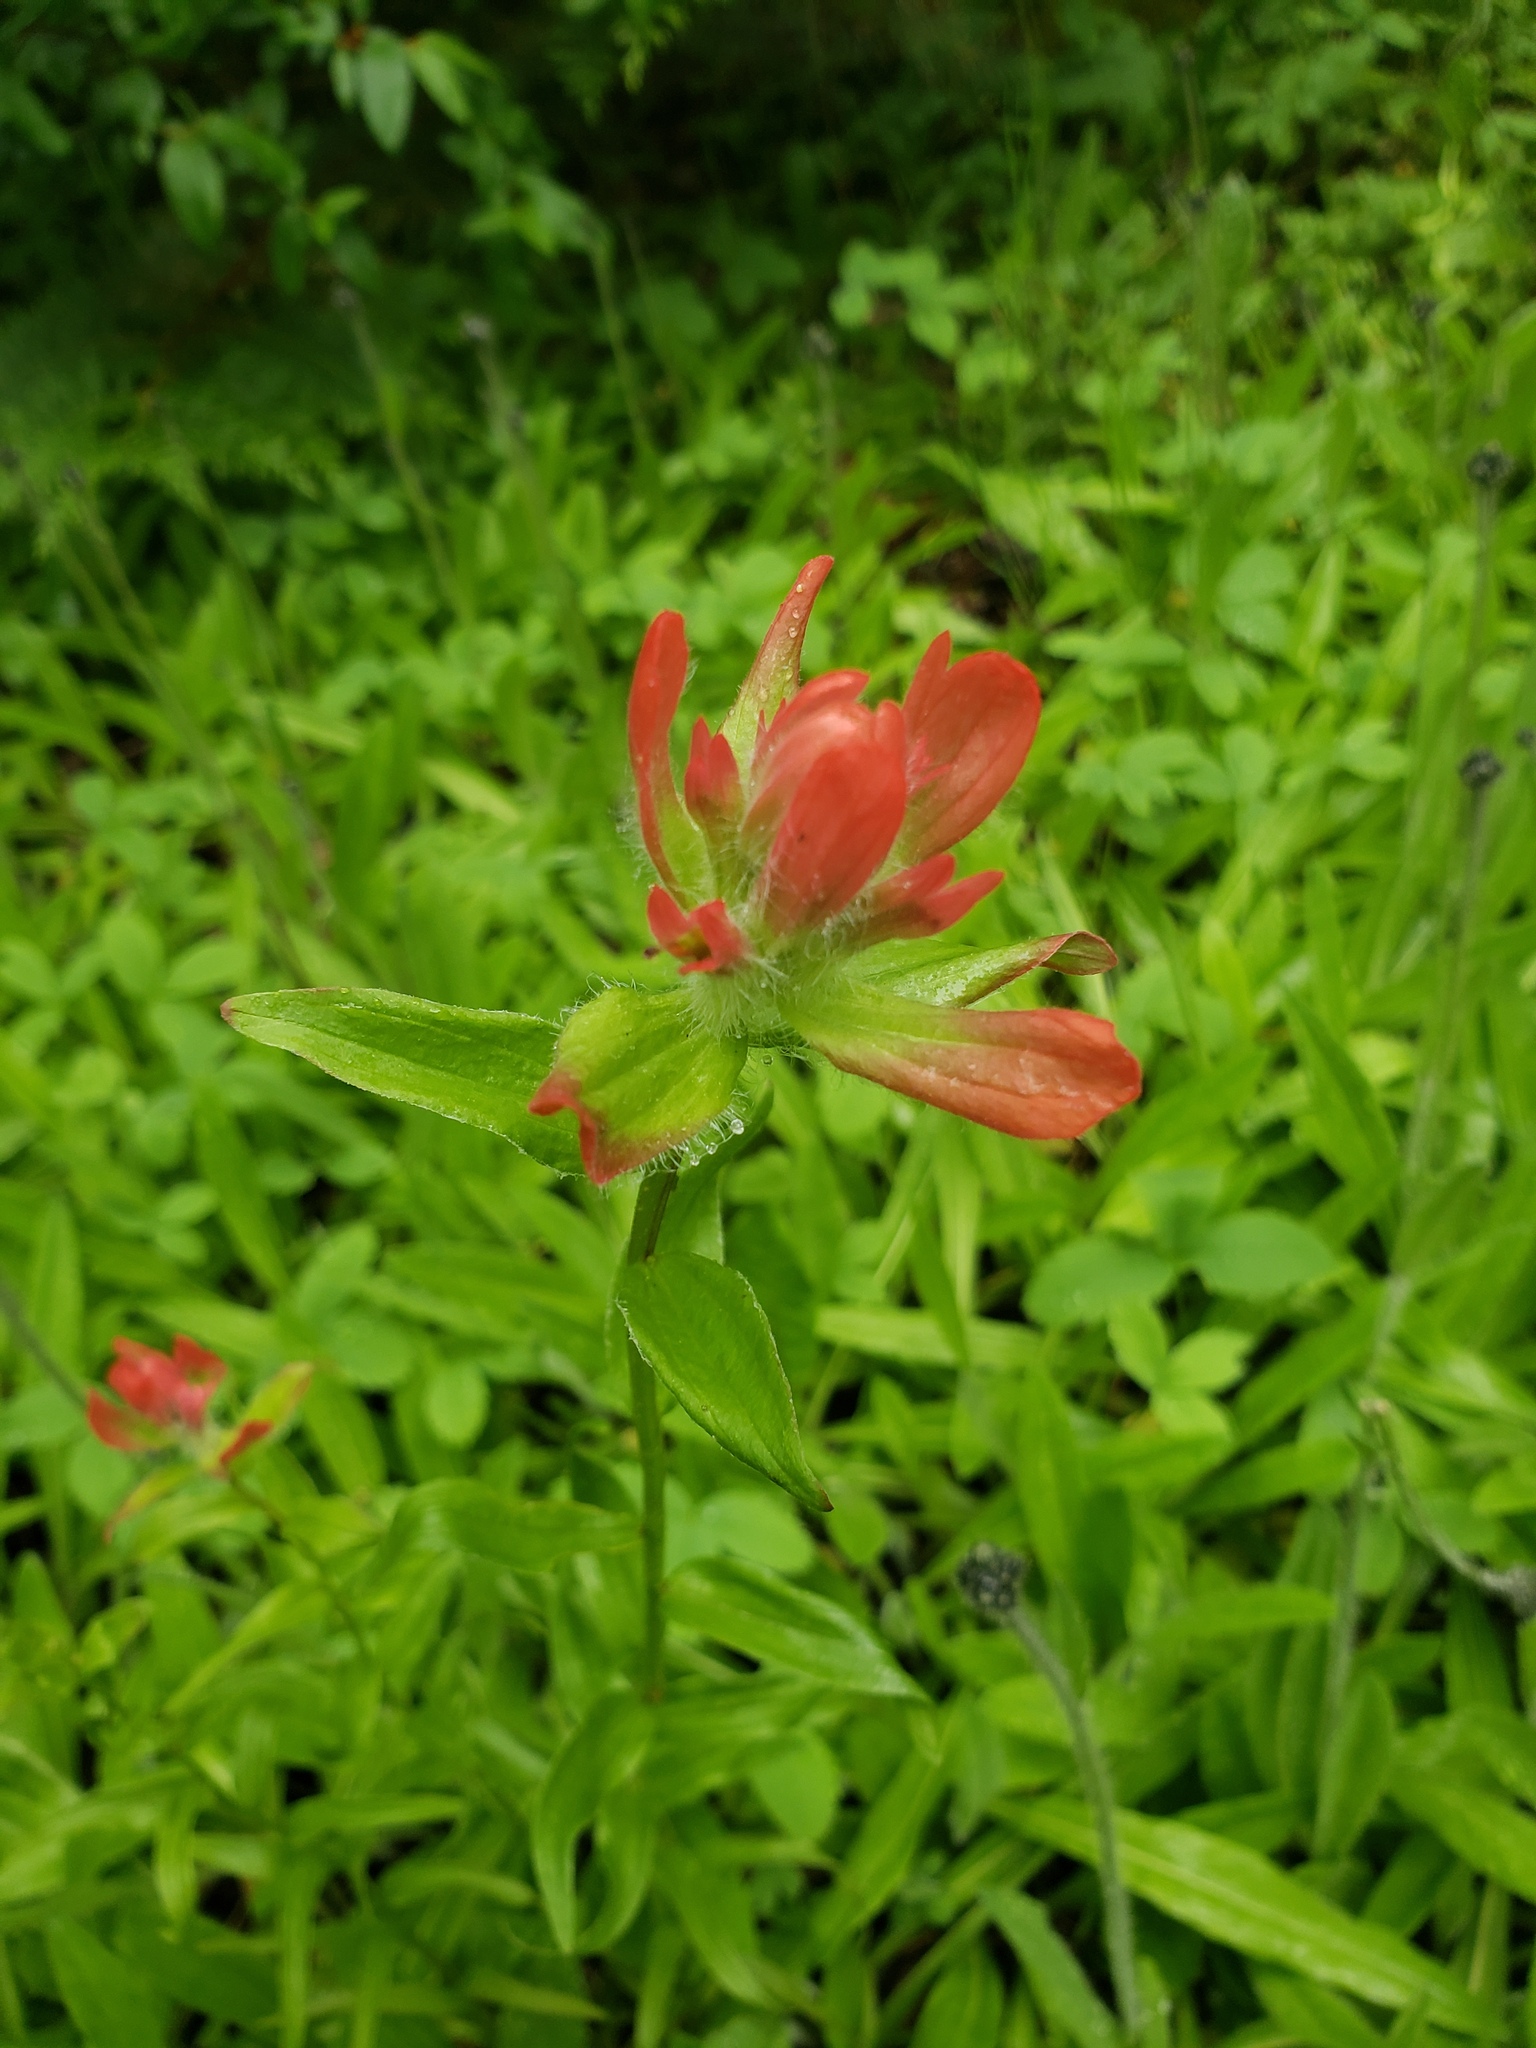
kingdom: Plantae
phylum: Tracheophyta
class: Magnoliopsida
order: Lamiales
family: Orobanchaceae
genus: Castilleja
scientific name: Castilleja miniata
